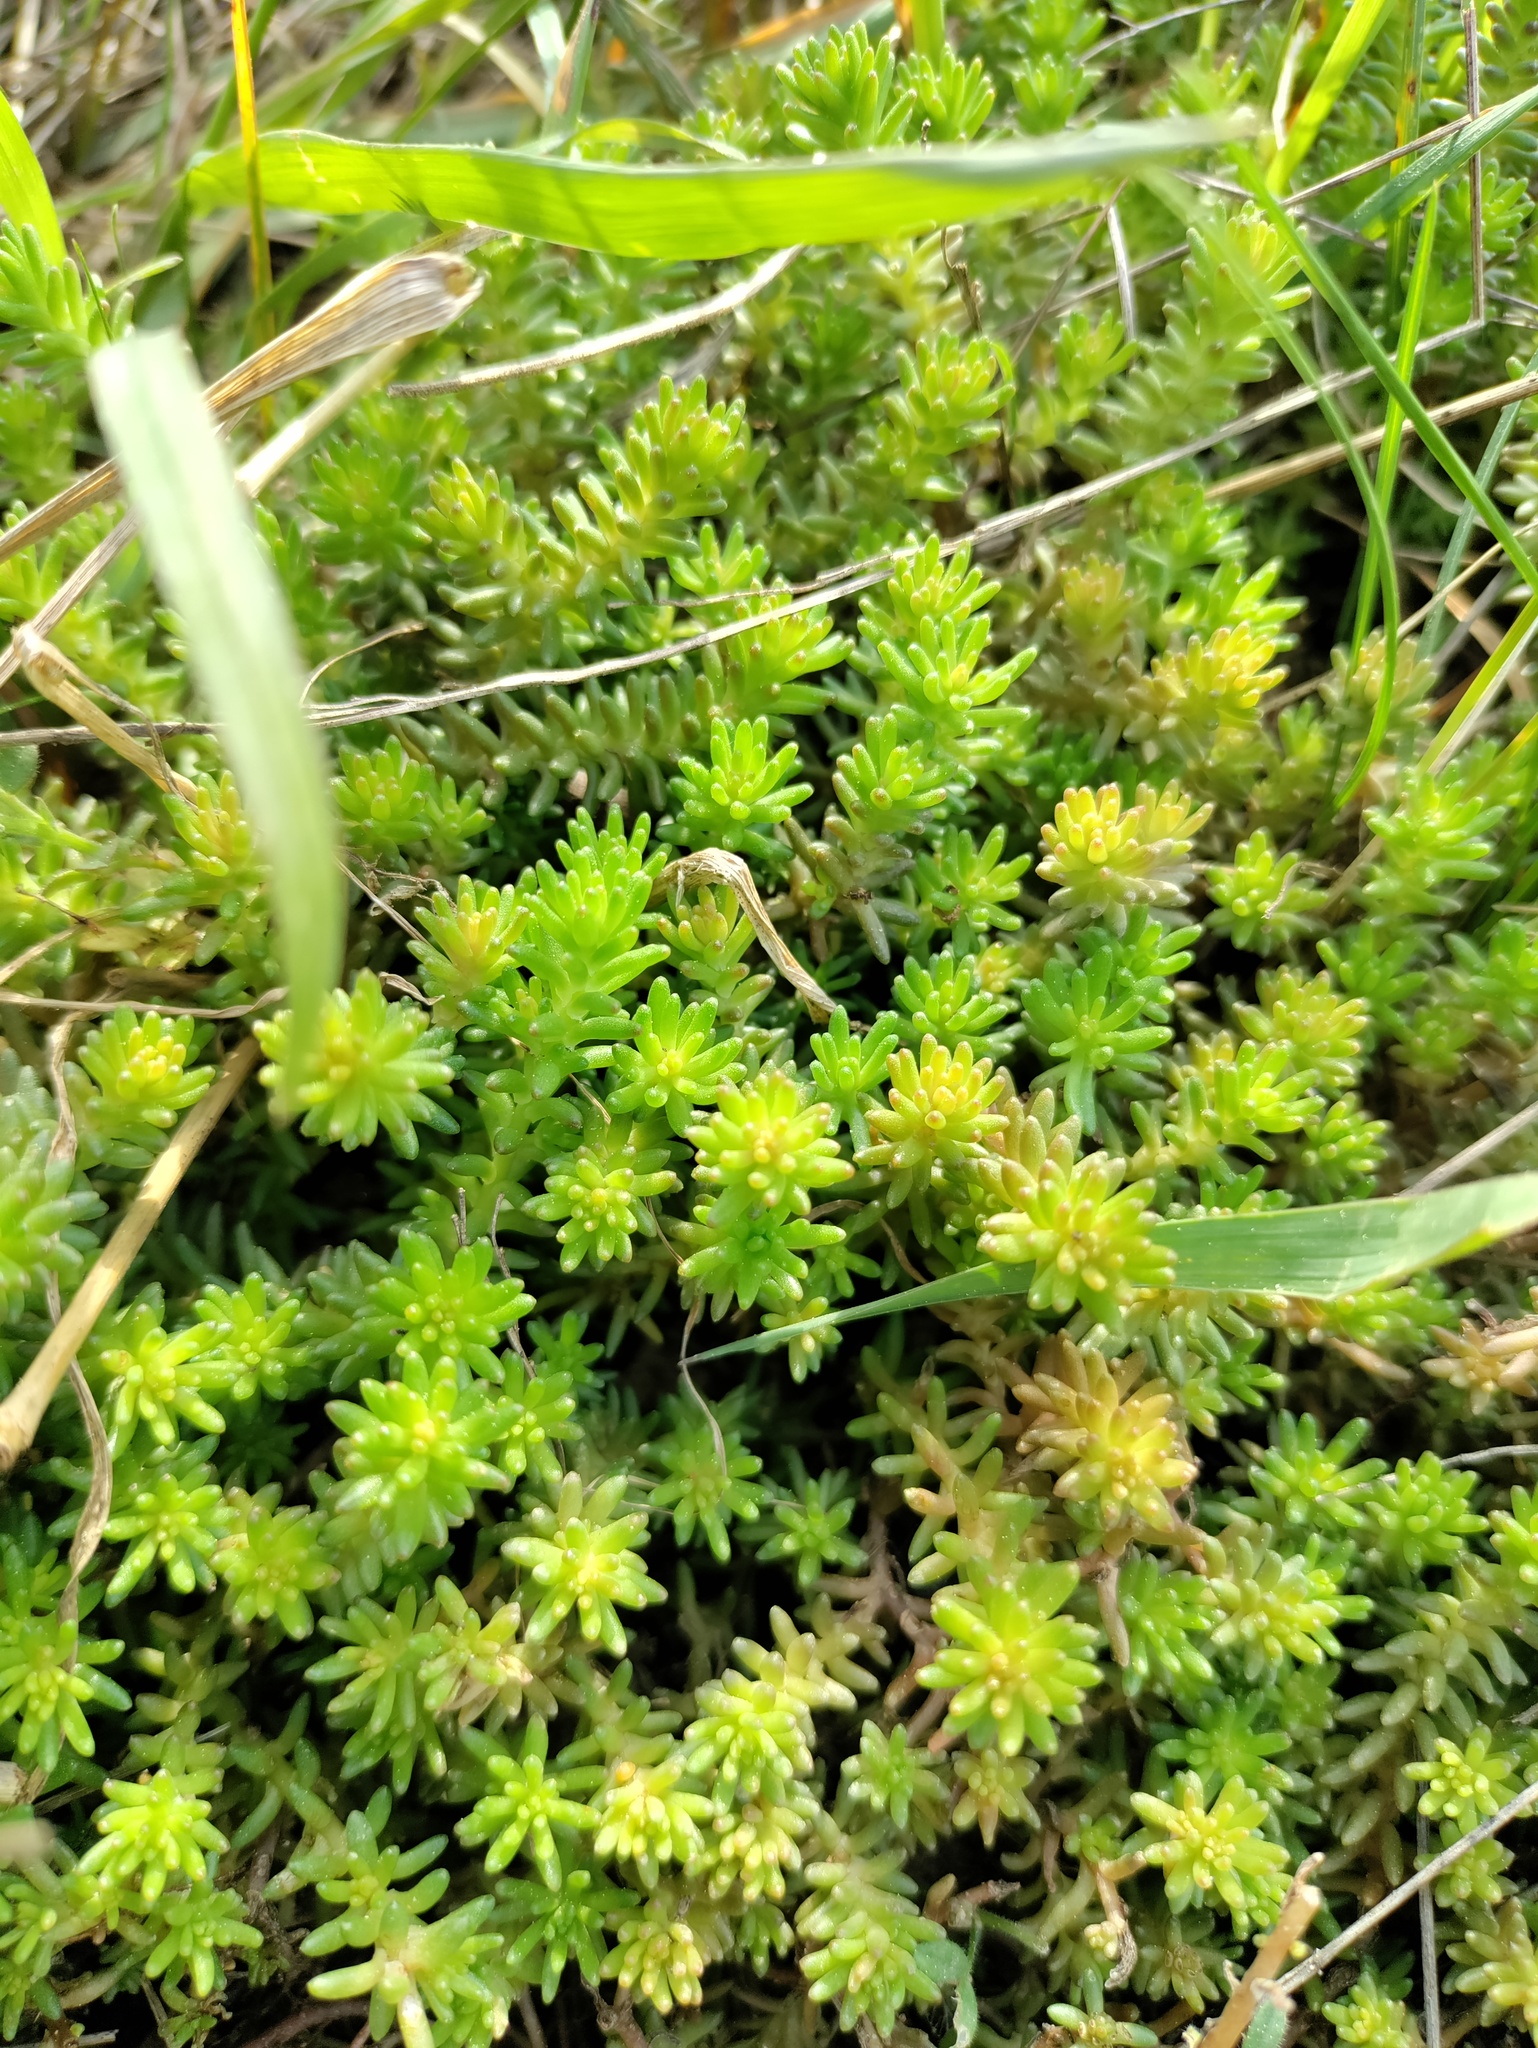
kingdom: Plantae
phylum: Tracheophyta
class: Magnoliopsida
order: Saxifragales
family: Crassulaceae
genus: Sedum
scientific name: Sedum sexangulare
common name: Tasteless stonecrop
